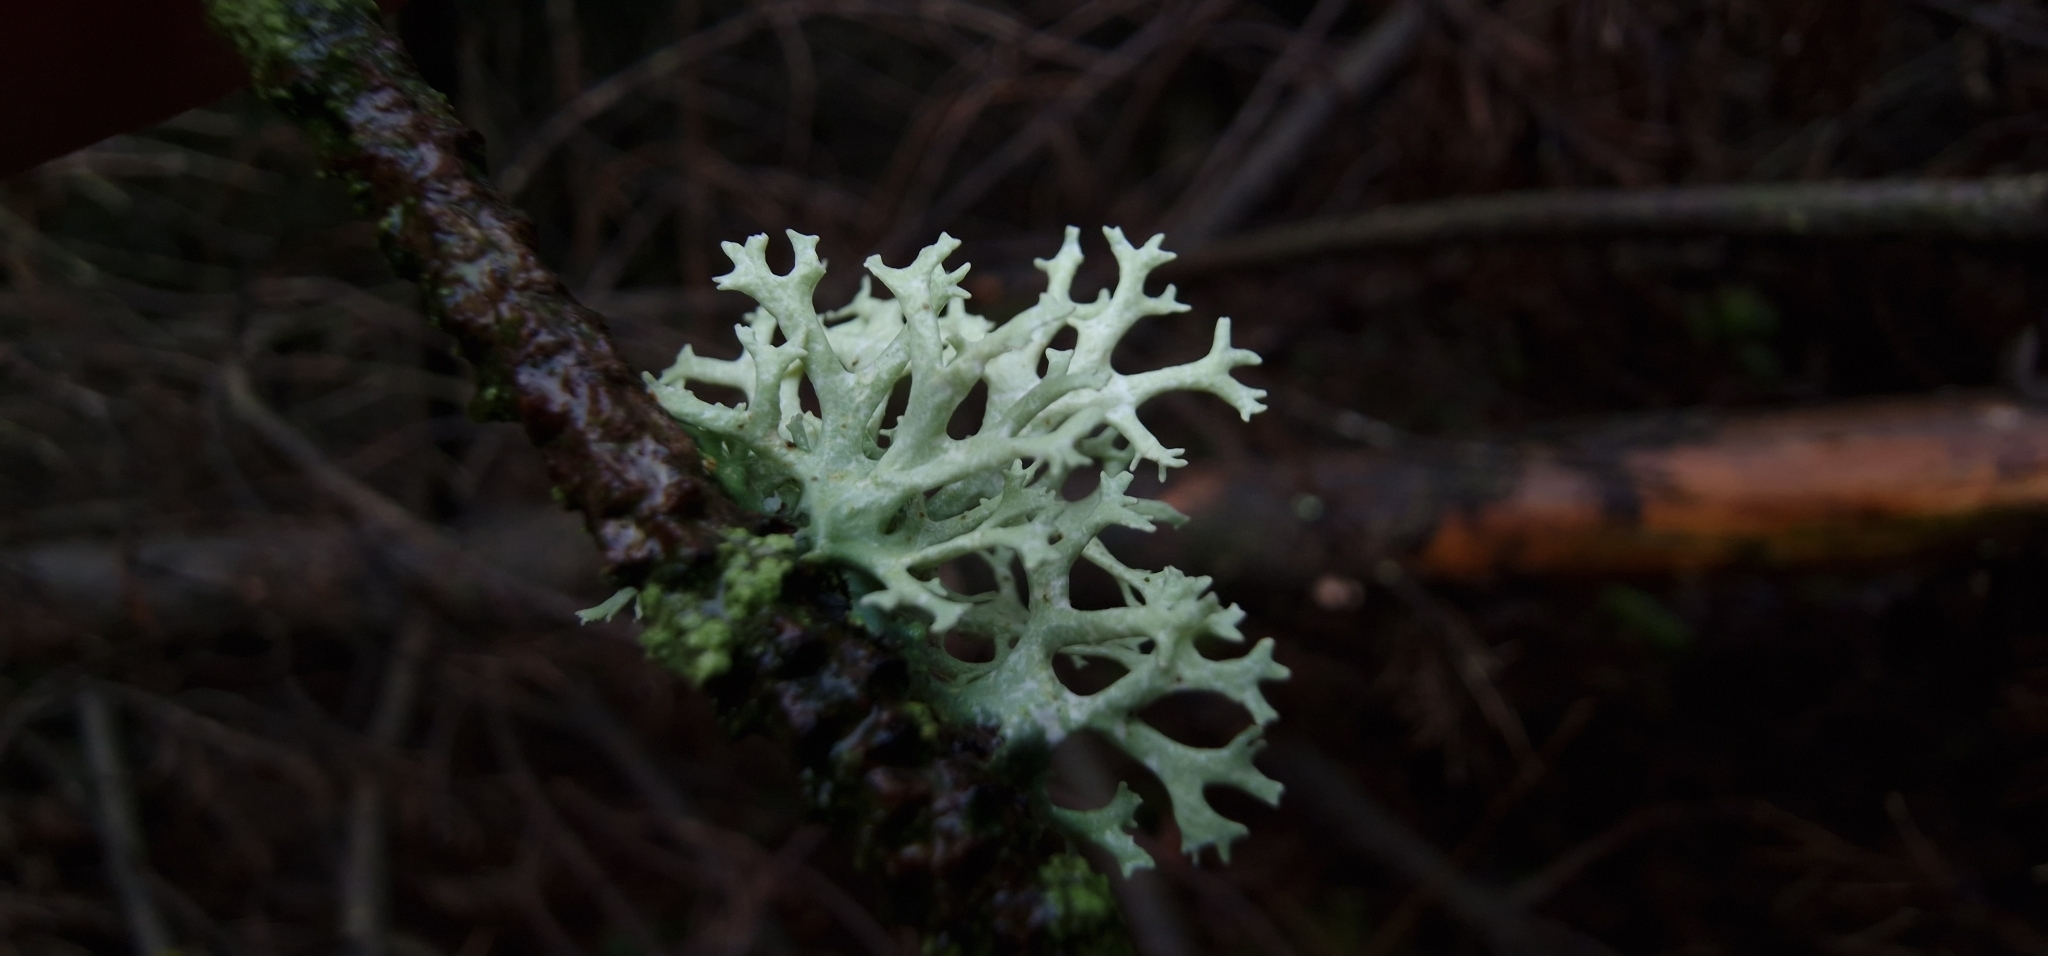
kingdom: Fungi
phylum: Ascomycota
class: Lecanoromycetes
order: Lecanorales
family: Parmeliaceae
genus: Evernia
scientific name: Evernia prunastri
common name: Oak moss
